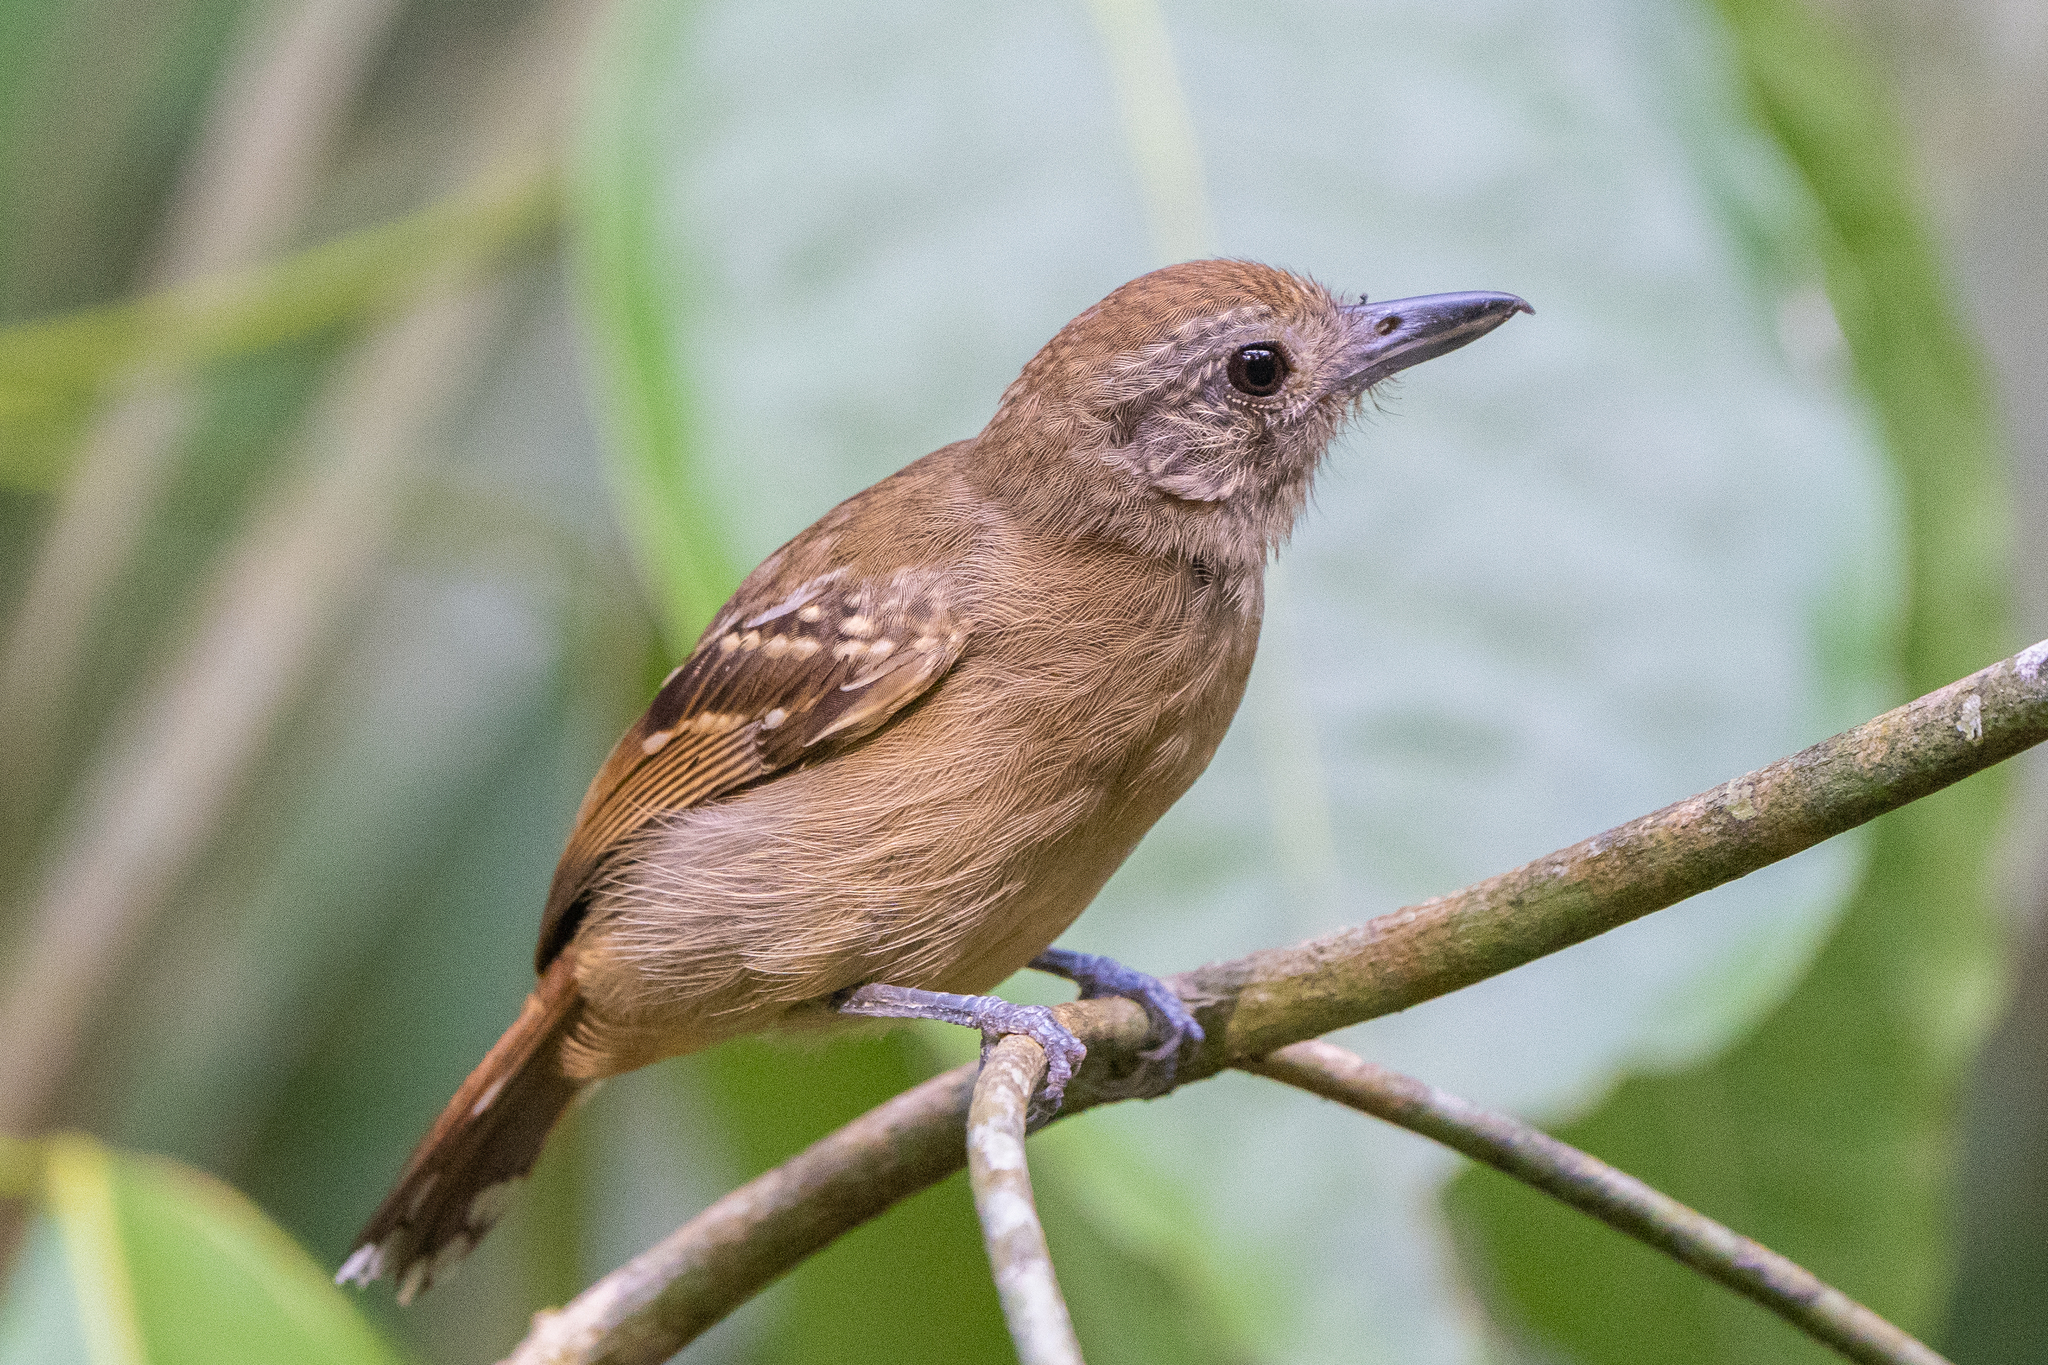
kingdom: Animalia
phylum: Chordata
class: Aves
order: Passeriformes
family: Thamnophilidae
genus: Thamnophilus
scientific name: Thamnophilus atrinucha
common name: Black-crowned antshrike
